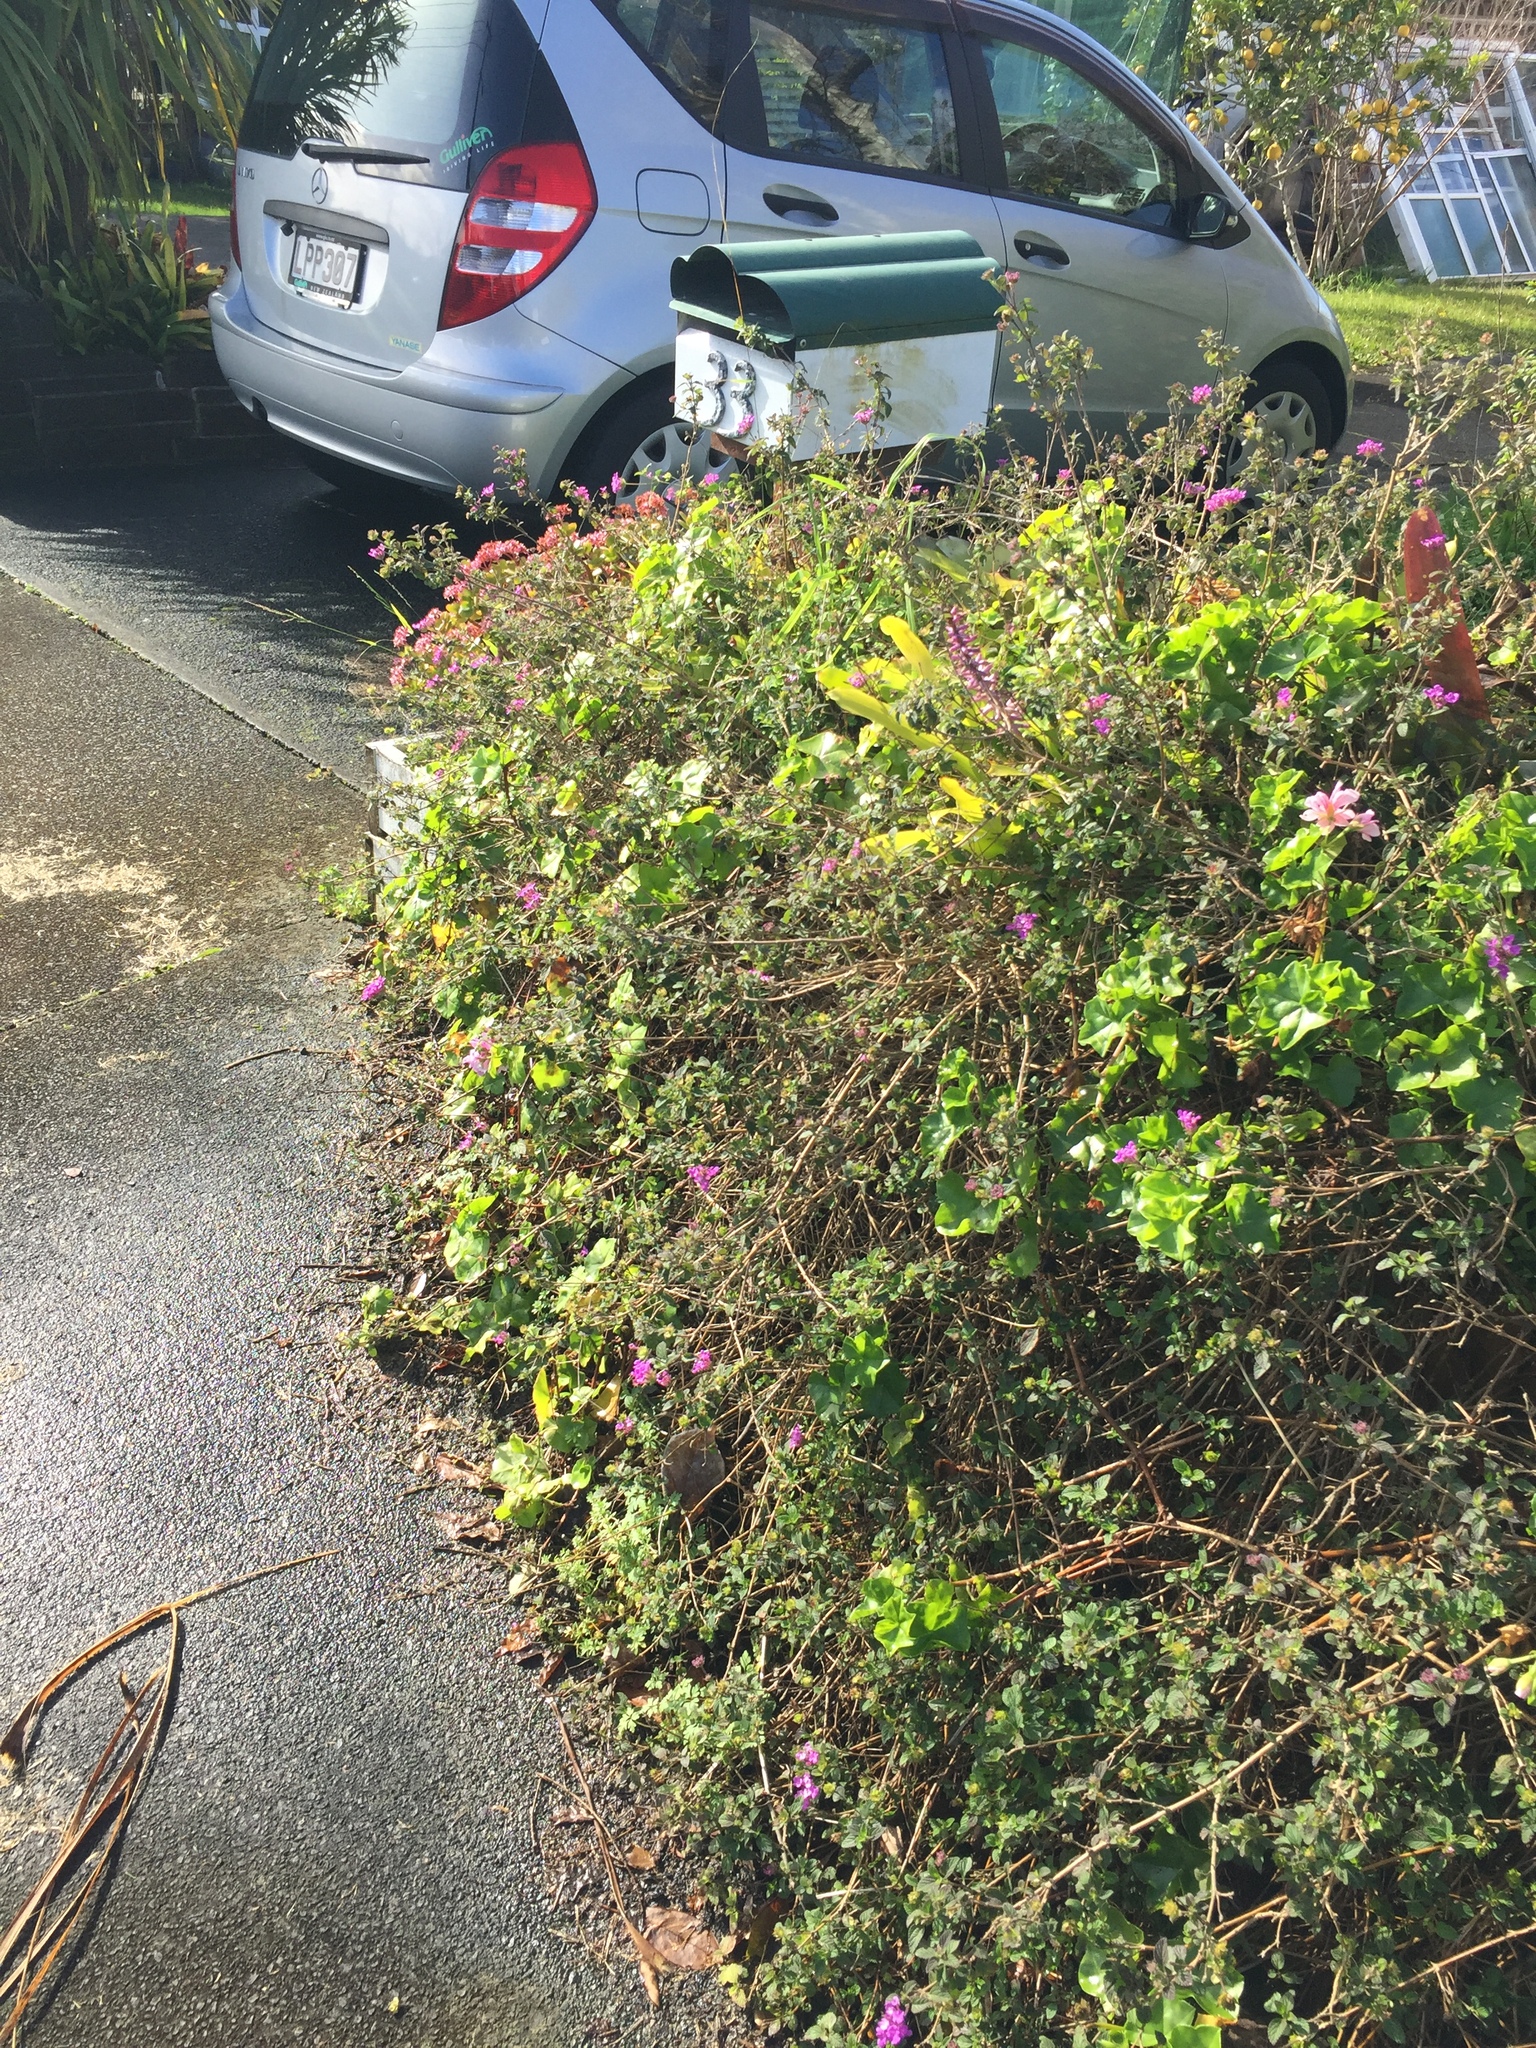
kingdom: Animalia
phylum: Arthropoda
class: Insecta
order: Lepidoptera
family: Pterophoridae
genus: Lantanophaga
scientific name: Lantanophaga pusillidactylus
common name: Moth
